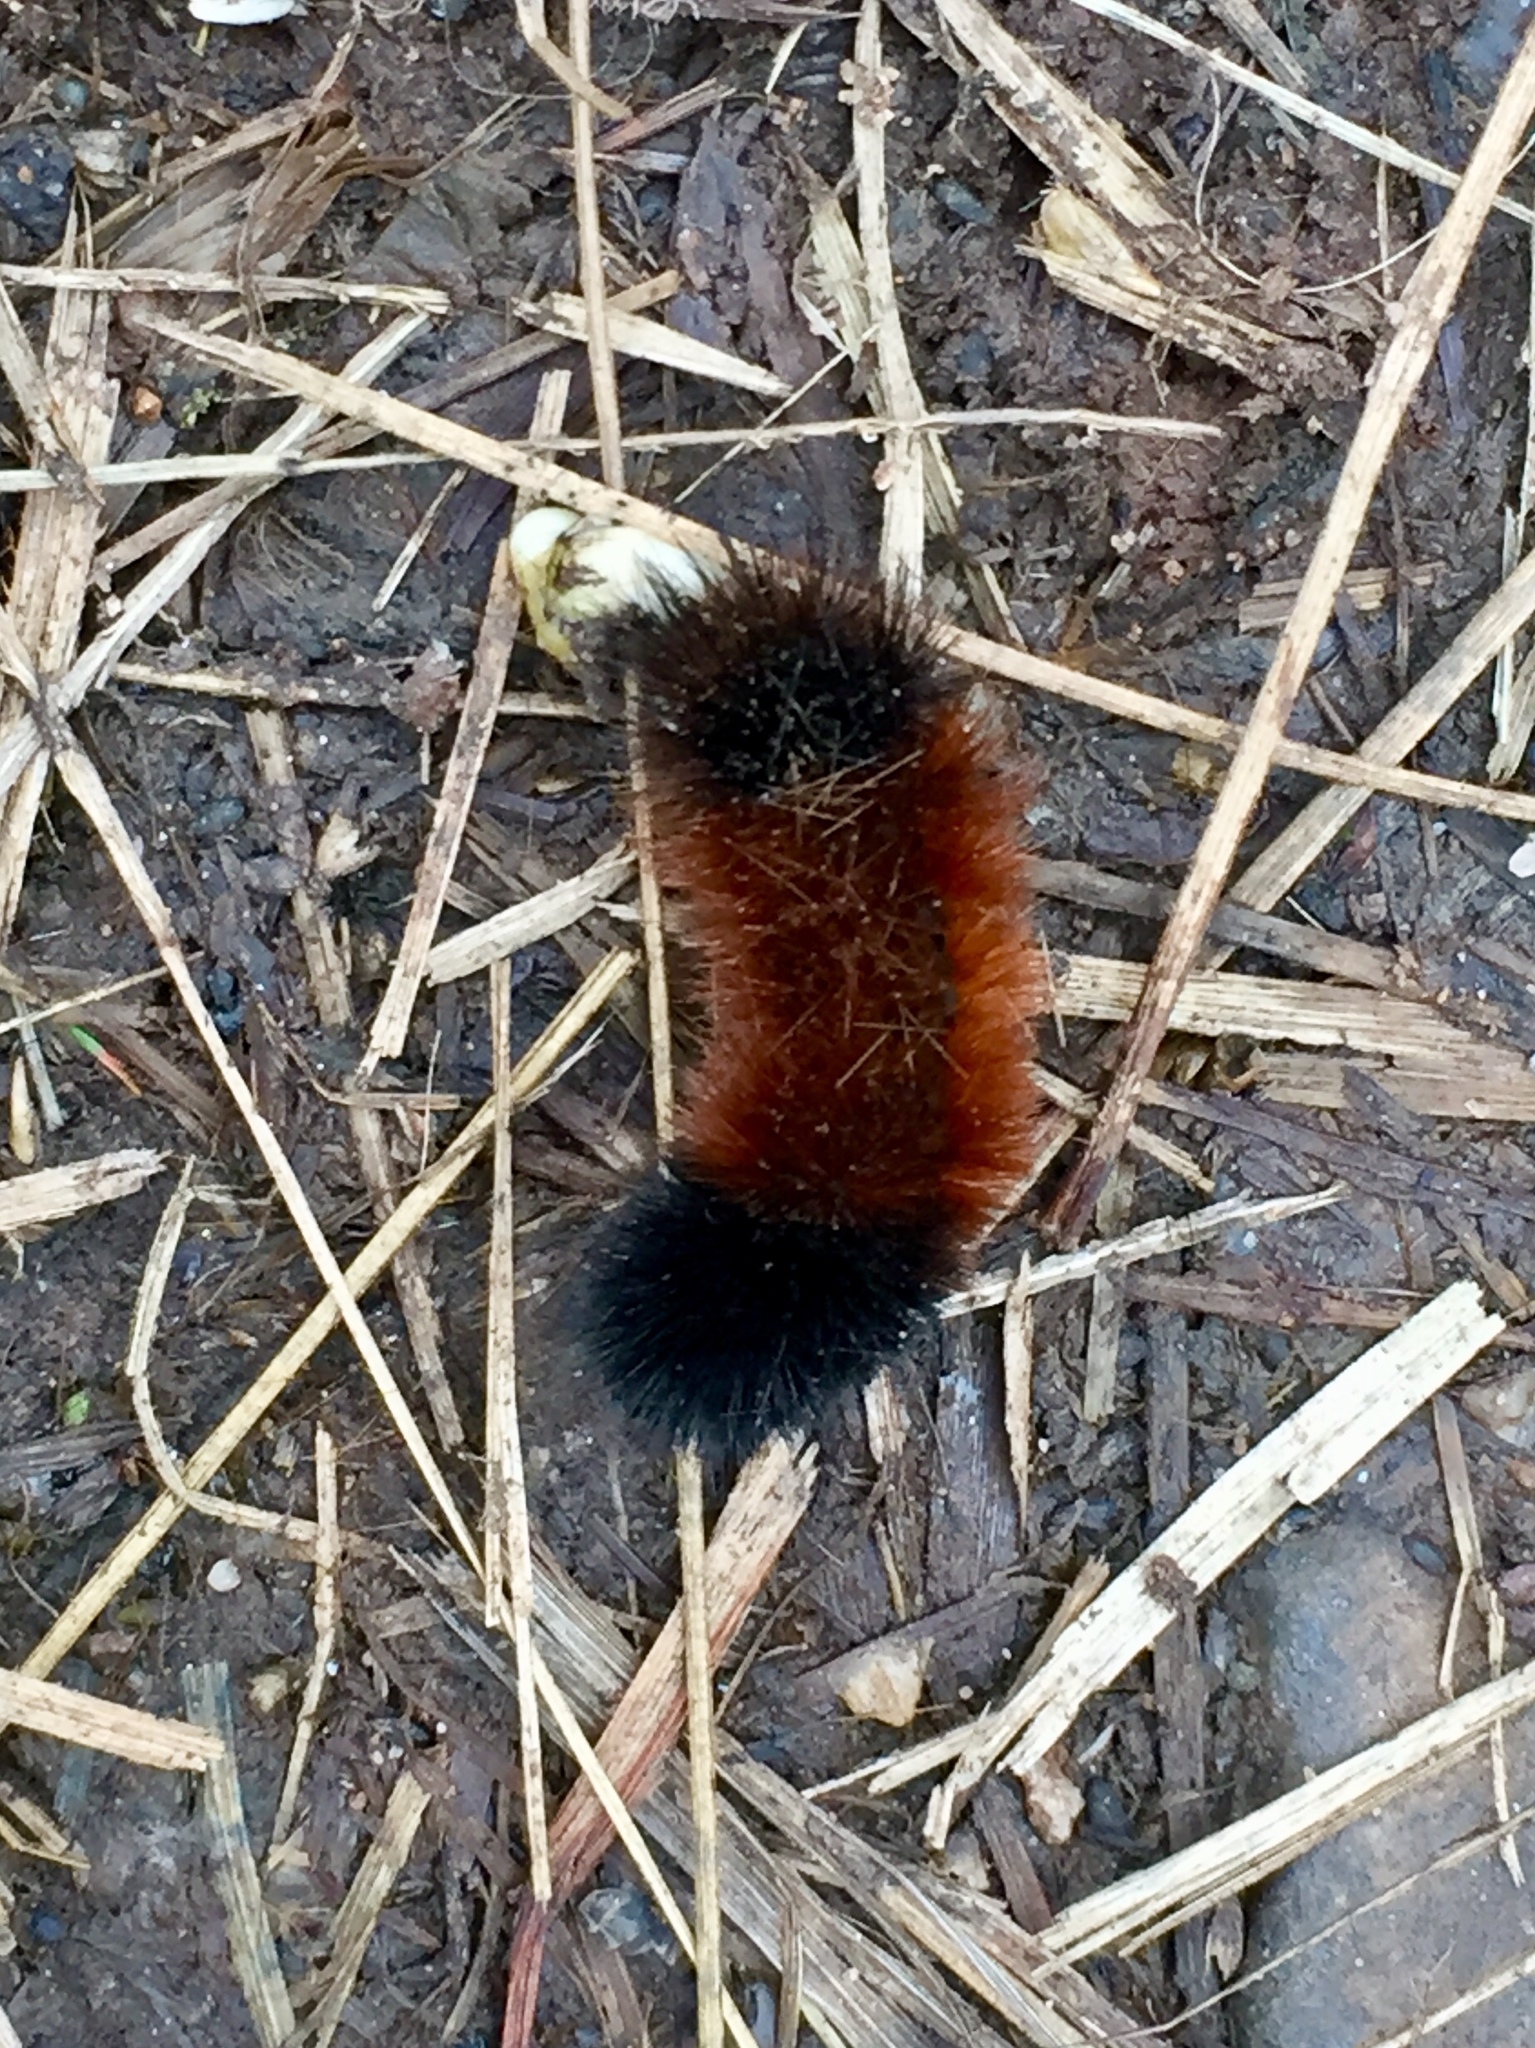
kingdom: Animalia
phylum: Arthropoda
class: Insecta
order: Lepidoptera
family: Erebidae
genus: Pyrrharctia
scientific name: Pyrrharctia isabella
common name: Isabella tiger moth
